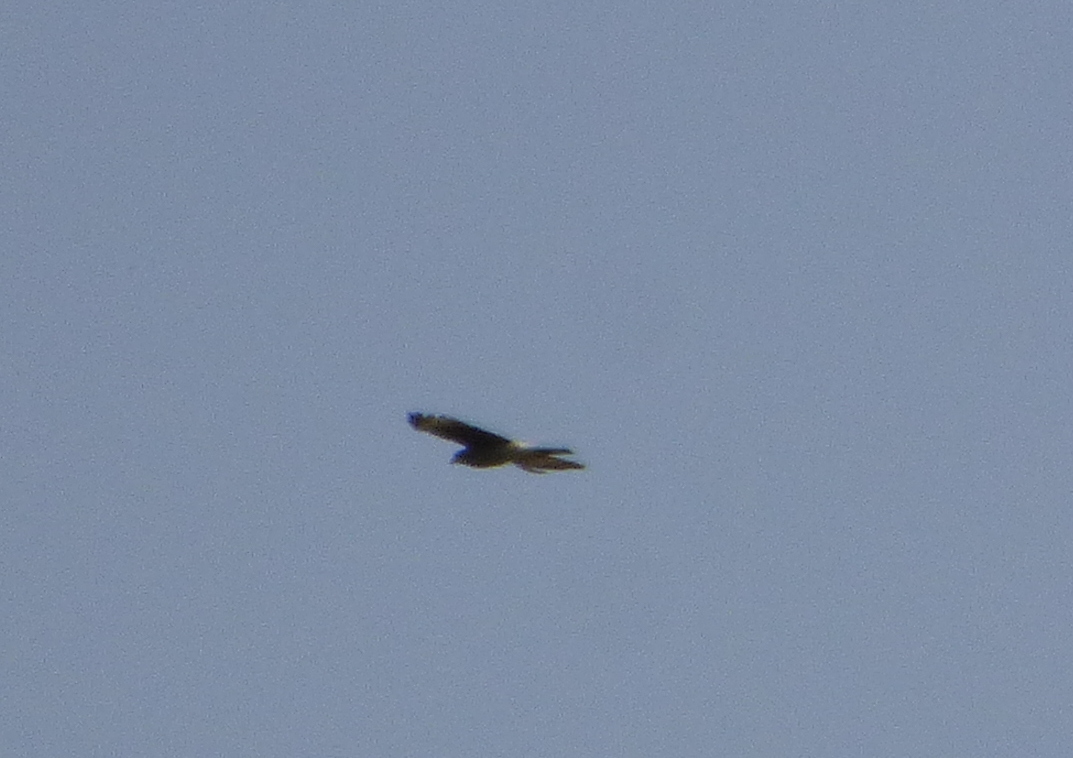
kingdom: Animalia
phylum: Chordata
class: Aves
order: Falconiformes
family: Falconidae
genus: Daptrius
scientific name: Daptrius
